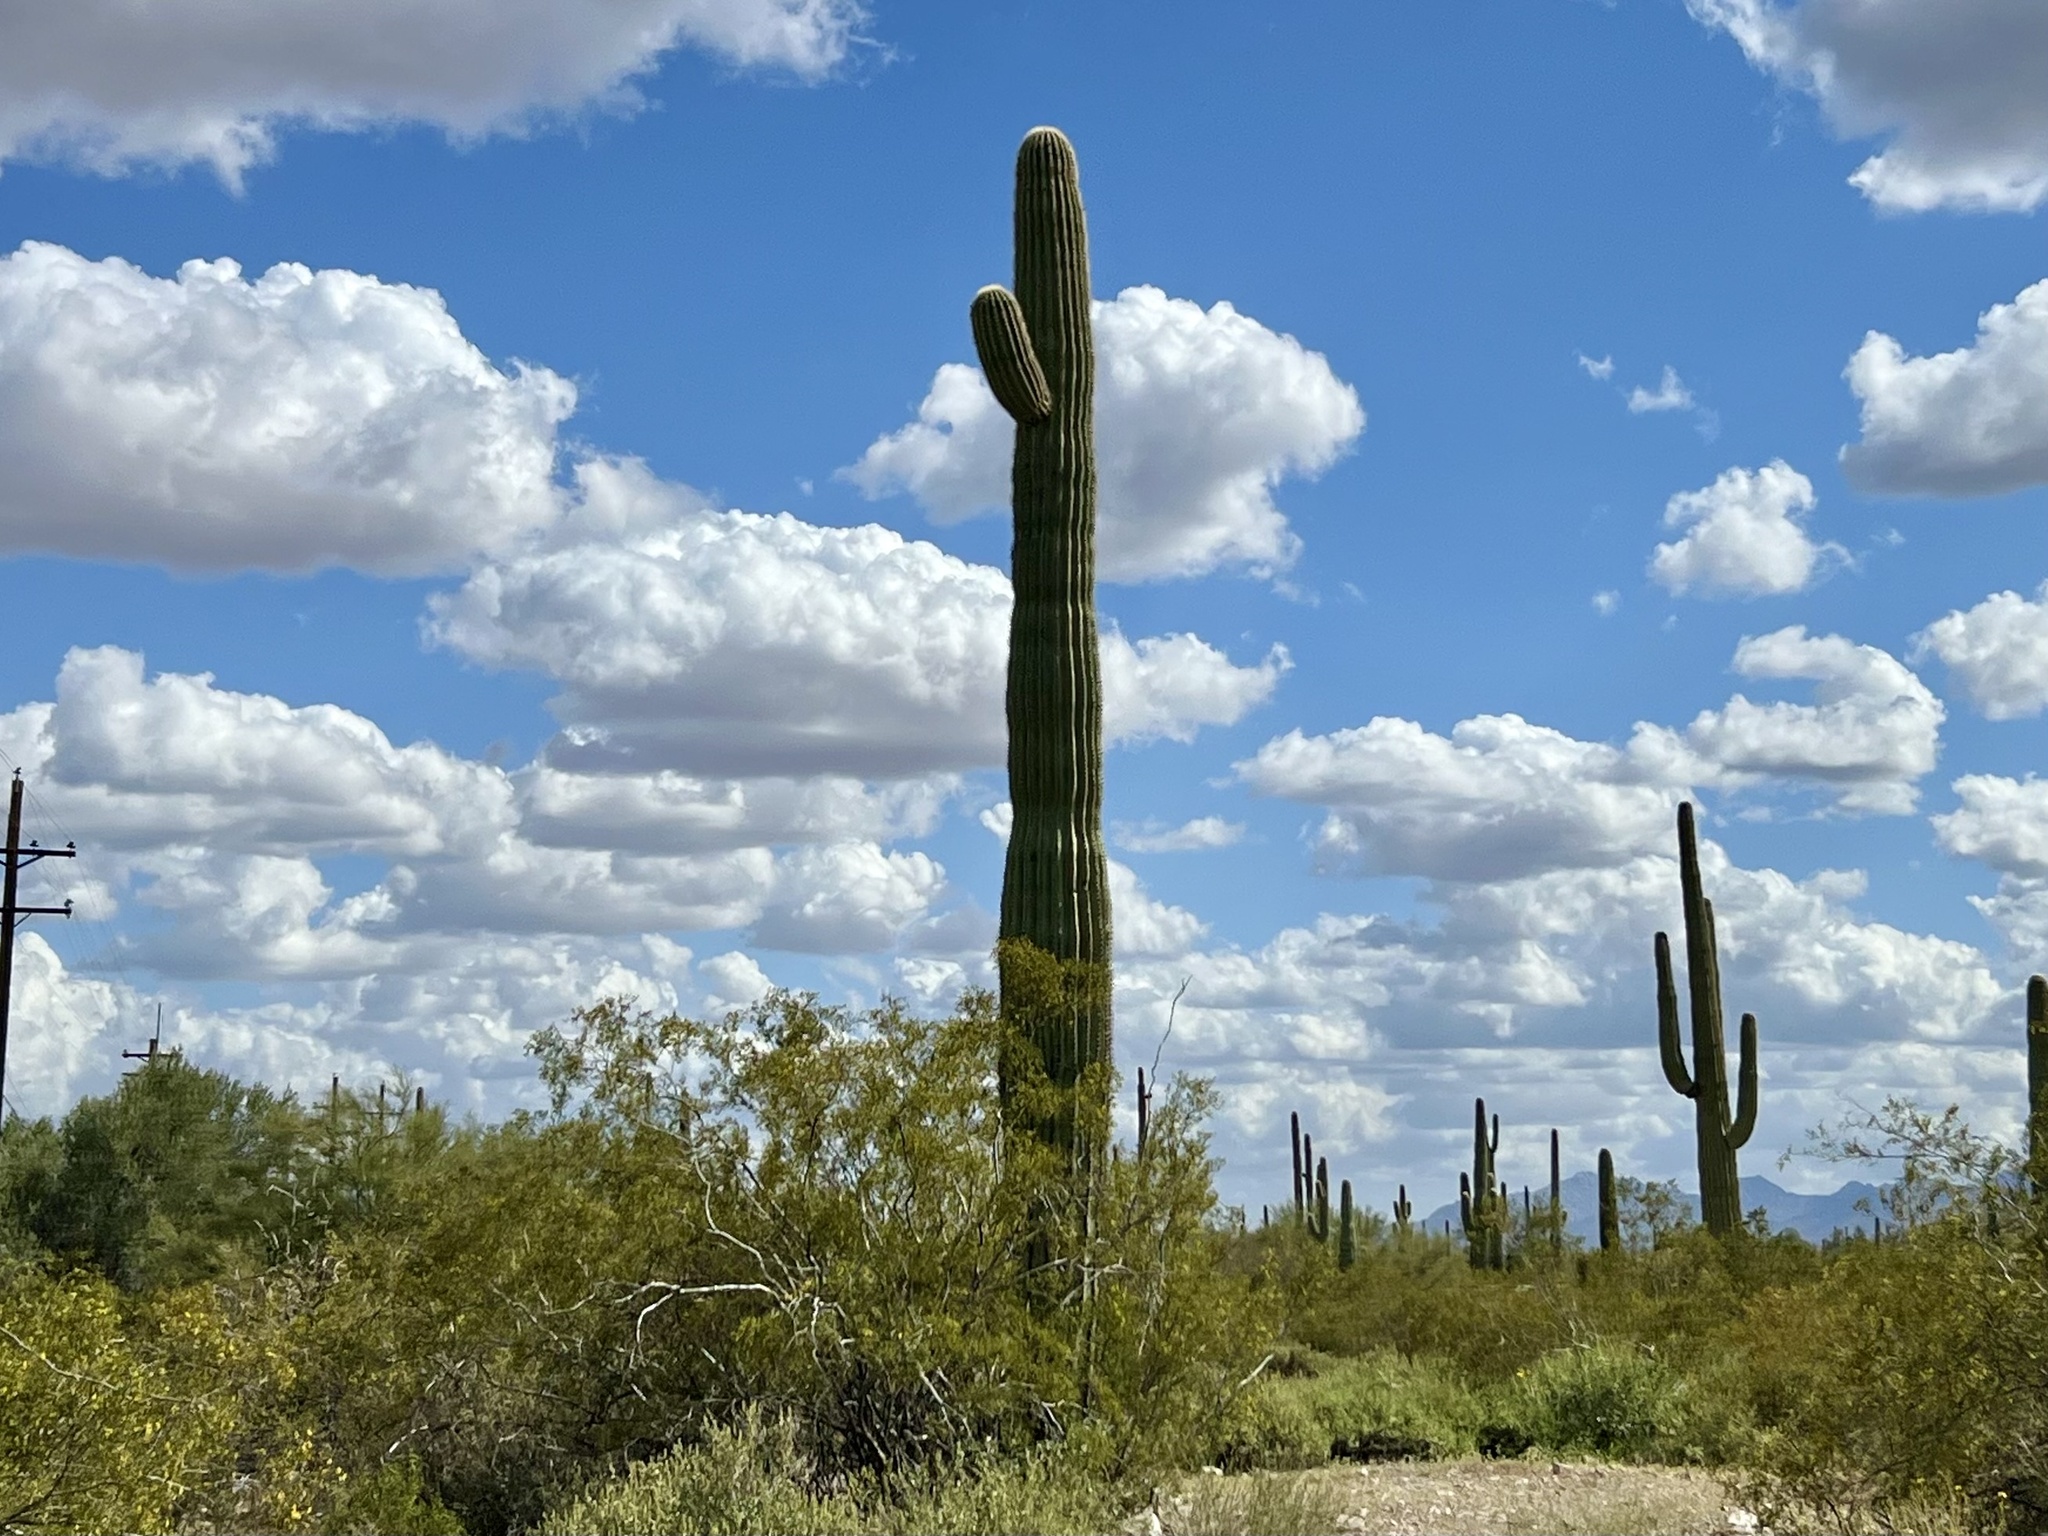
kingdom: Plantae
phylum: Tracheophyta
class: Magnoliopsida
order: Caryophyllales
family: Cactaceae
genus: Carnegiea
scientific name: Carnegiea gigantea
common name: Saguaro
